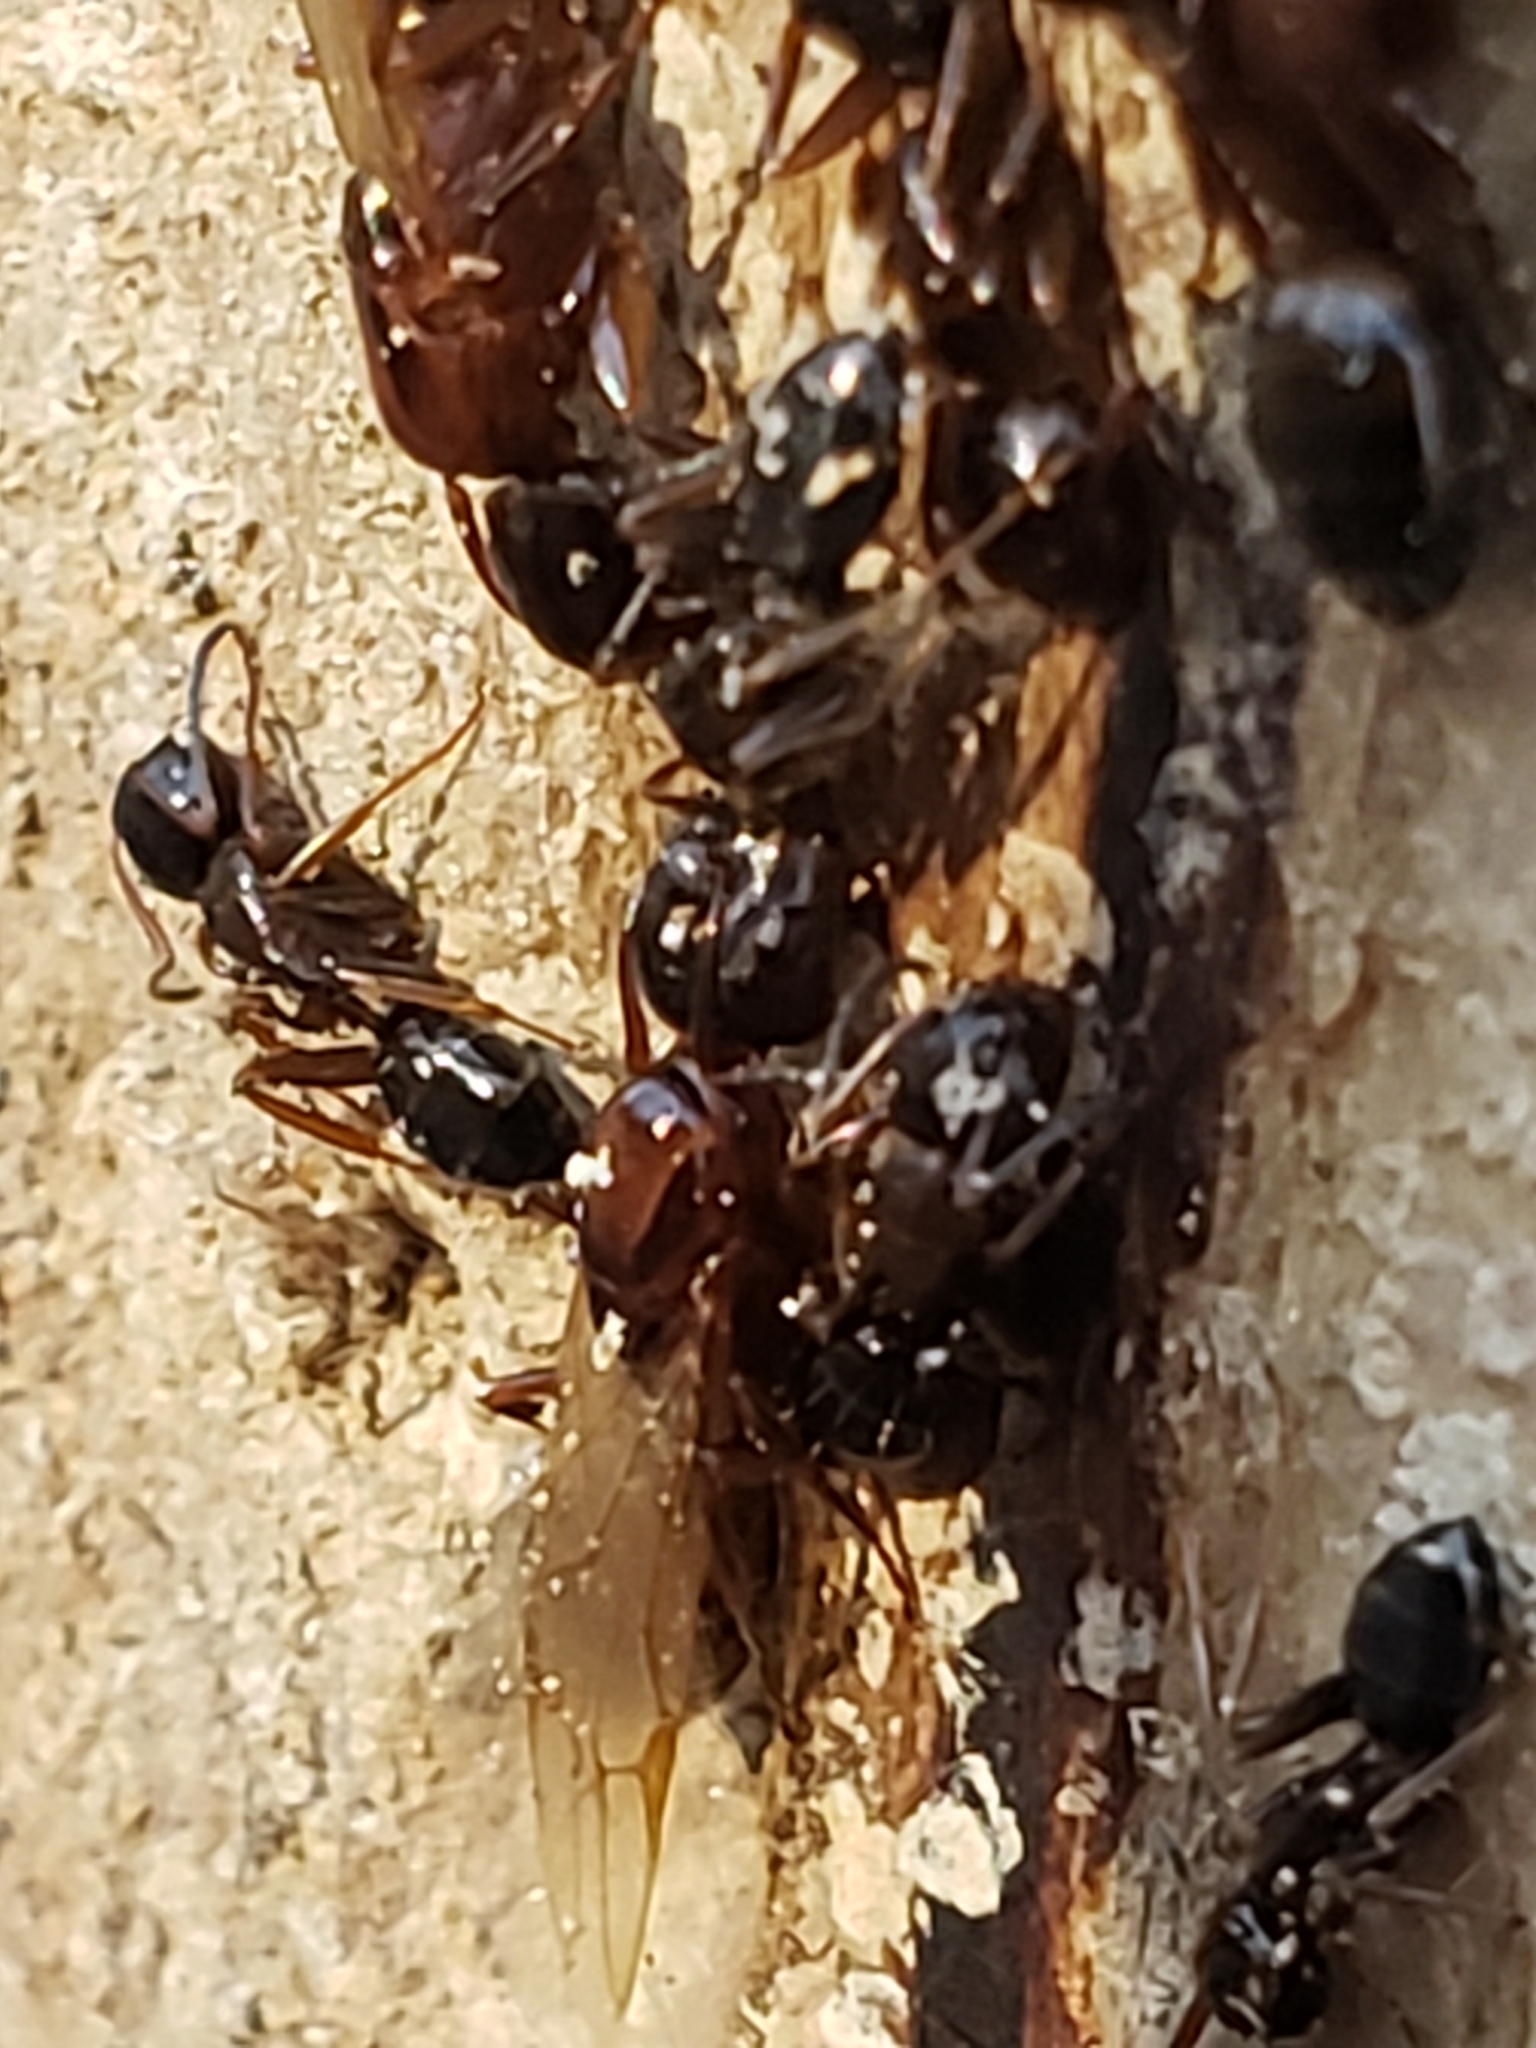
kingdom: Animalia
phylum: Arthropoda
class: Insecta
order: Hymenoptera
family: Formicidae
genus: Camponotus
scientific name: Camponotus nearcticus
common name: Smaller carpenter ant
